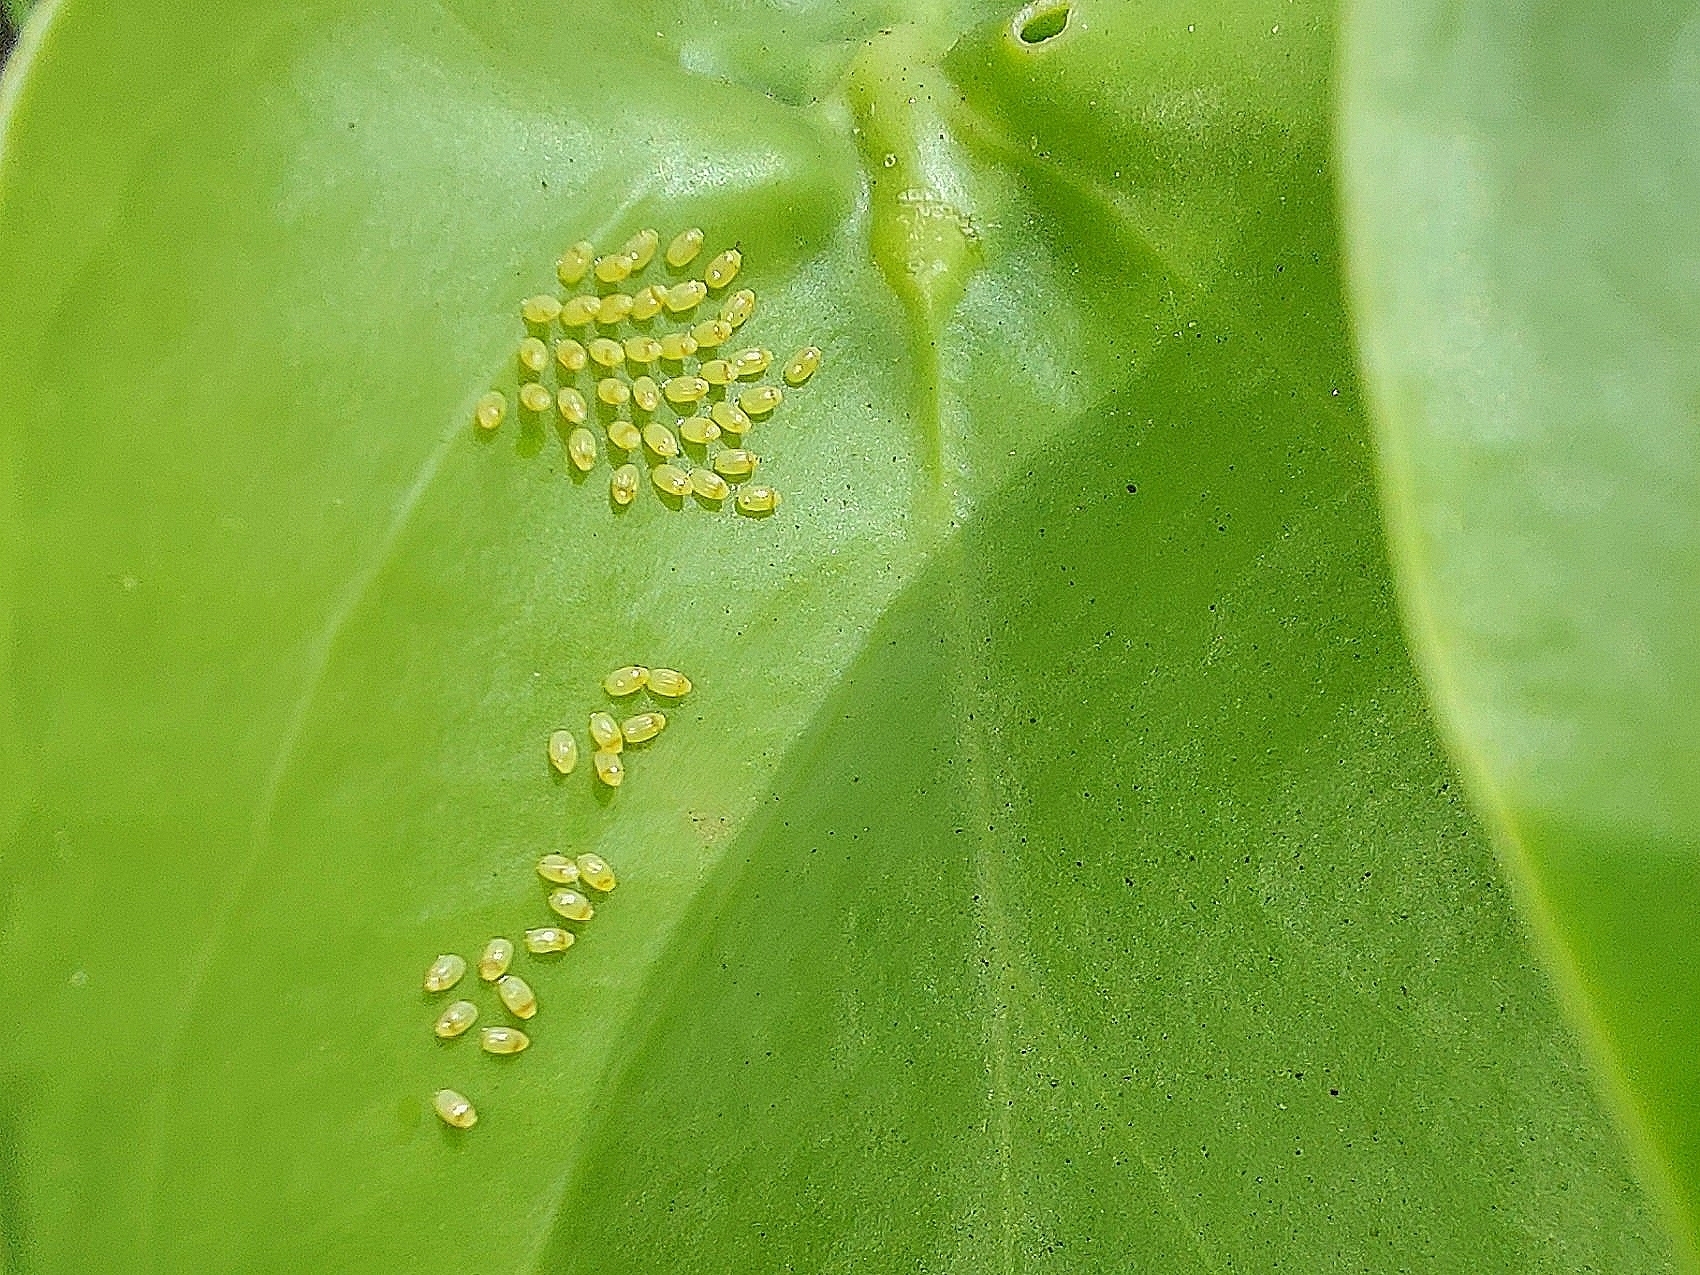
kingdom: Animalia
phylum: Arthropoda
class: Insecta
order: Lepidoptera
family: Pieridae
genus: Colotis
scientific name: Colotis amata
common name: Small salmon arab
